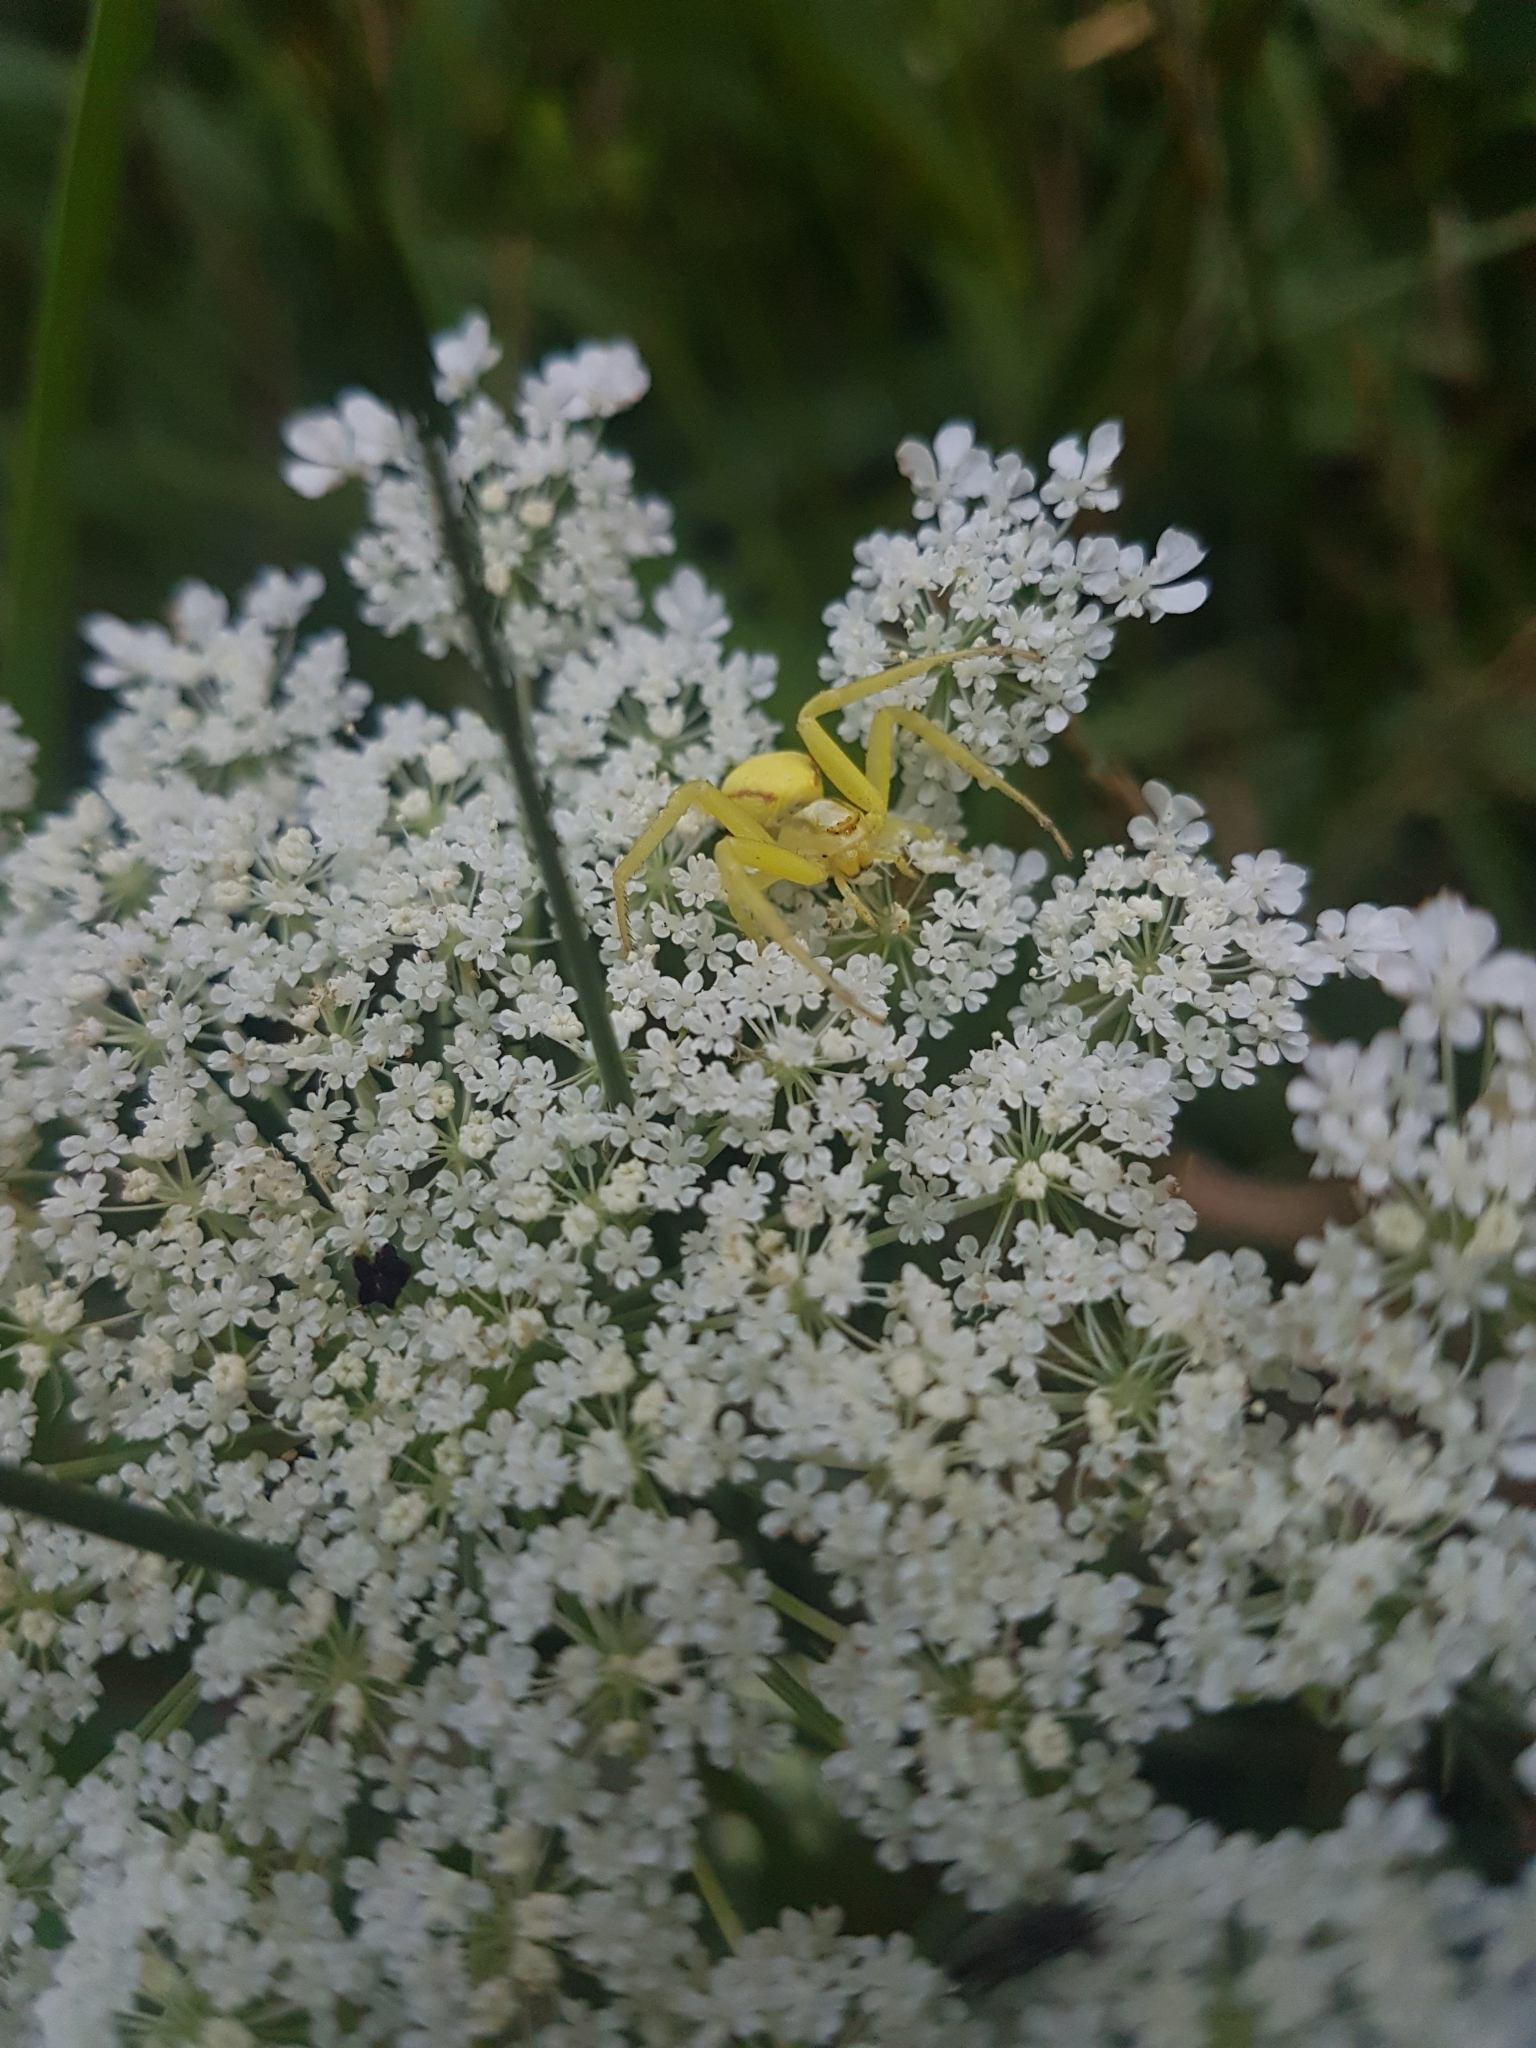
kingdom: Animalia
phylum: Arthropoda
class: Arachnida
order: Araneae
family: Thomisidae
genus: Misumena
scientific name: Misumena vatia
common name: Goldenrod crab spider
